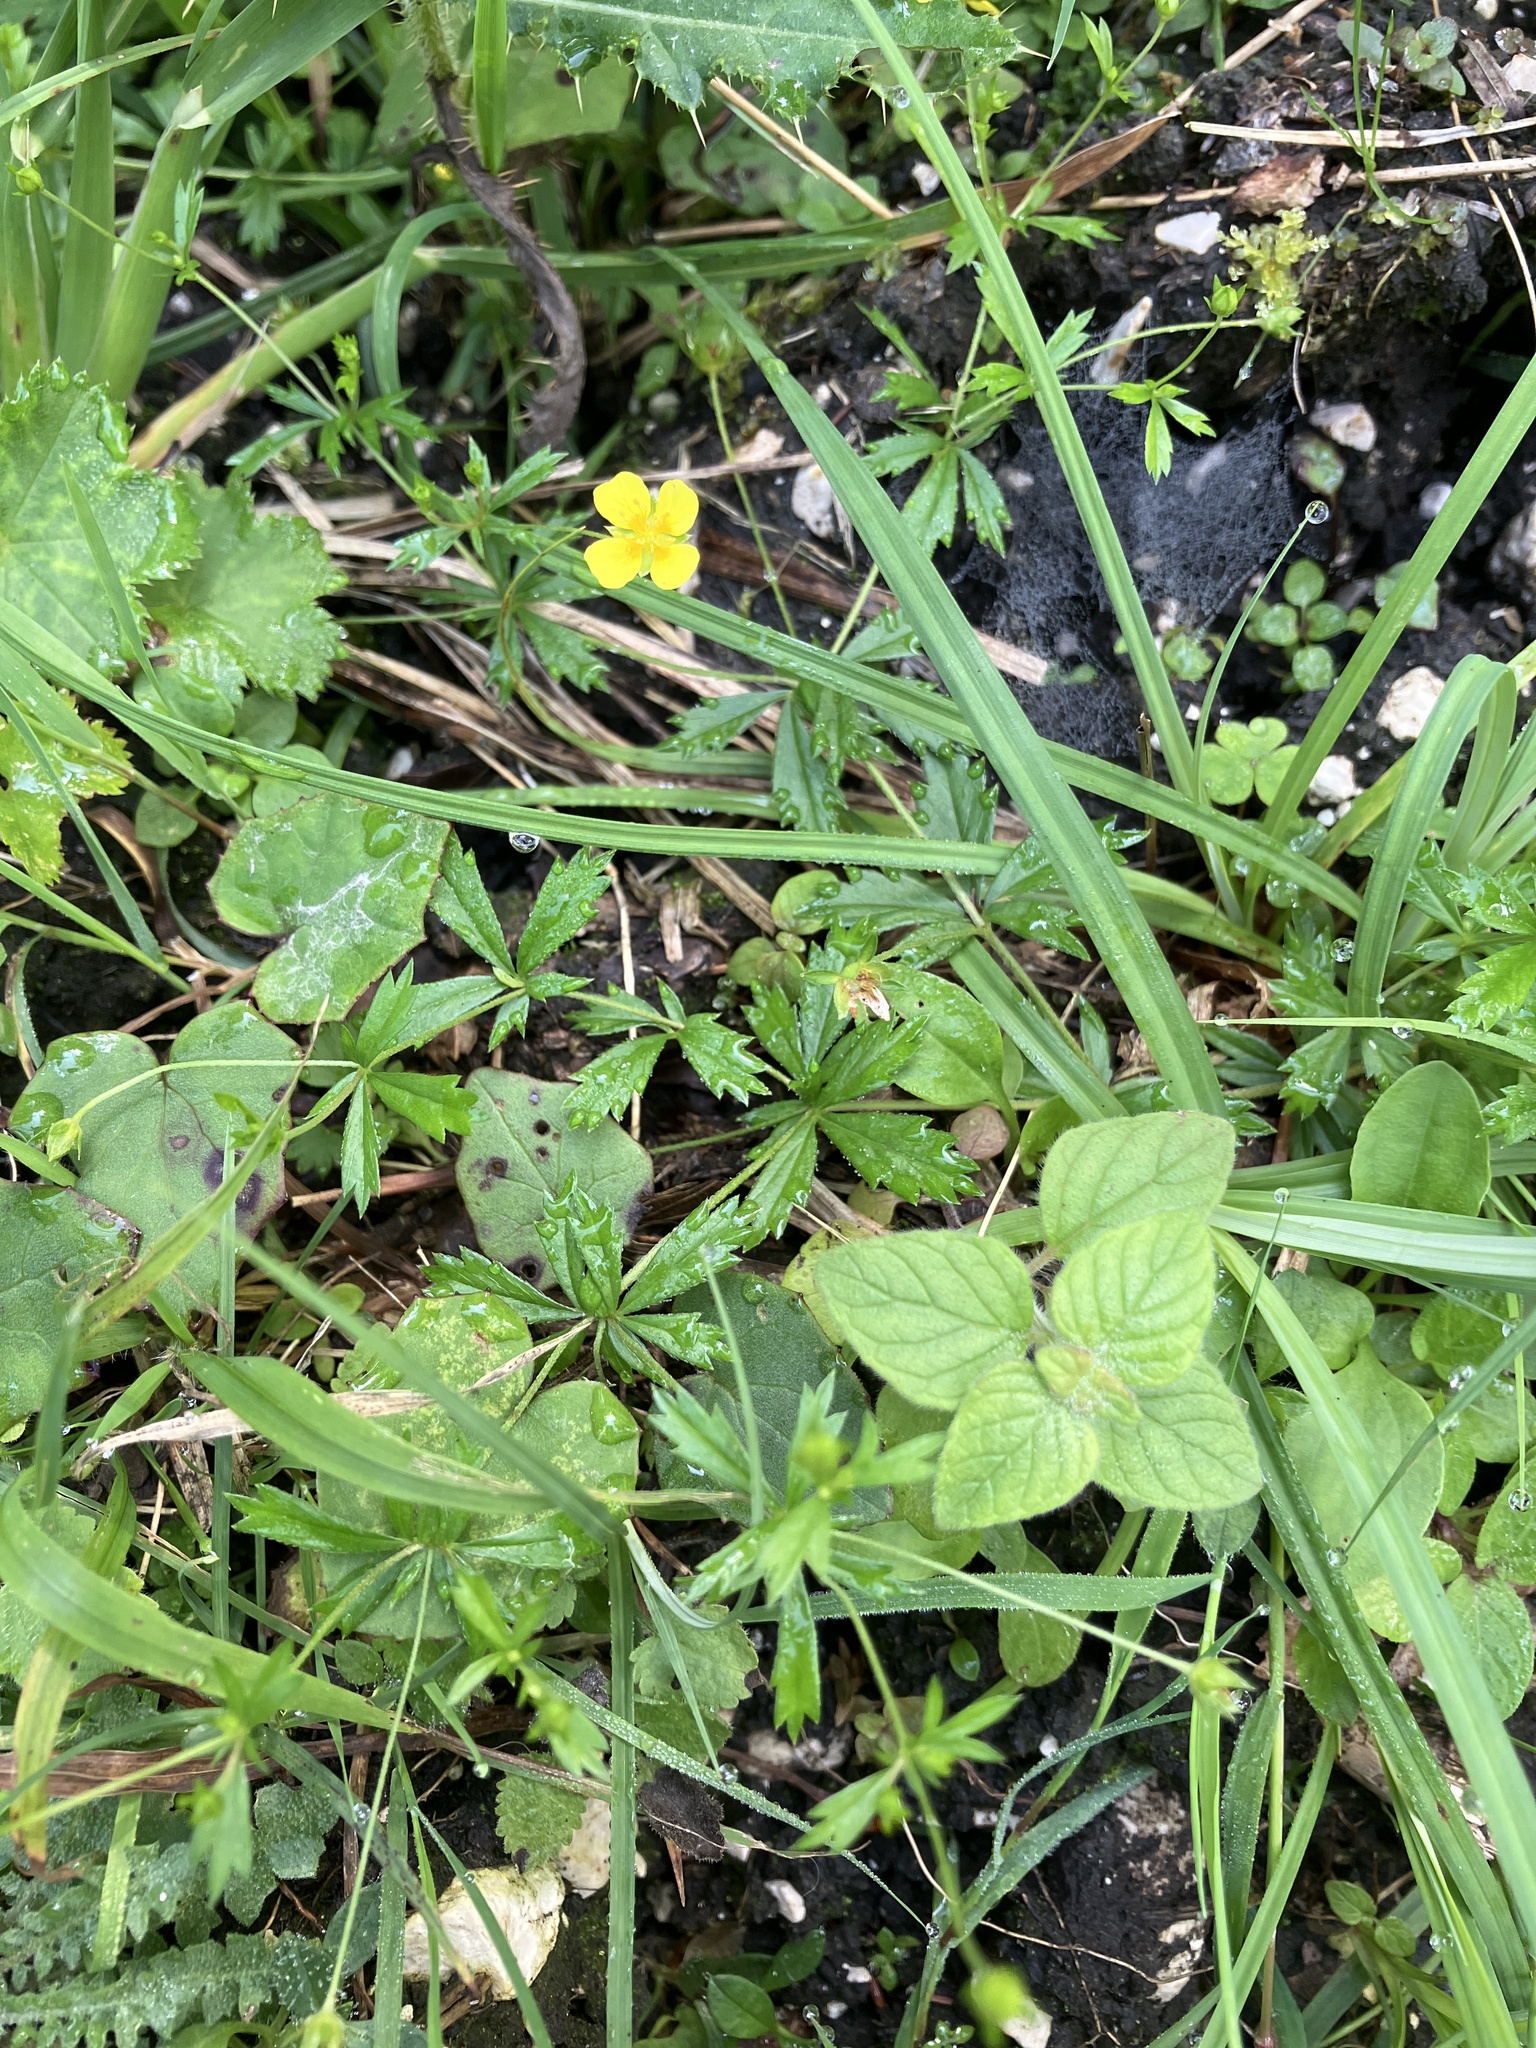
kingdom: Plantae
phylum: Tracheophyta
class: Magnoliopsida
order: Rosales
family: Rosaceae
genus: Potentilla
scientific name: Potentilla erecta
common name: Tormentil
